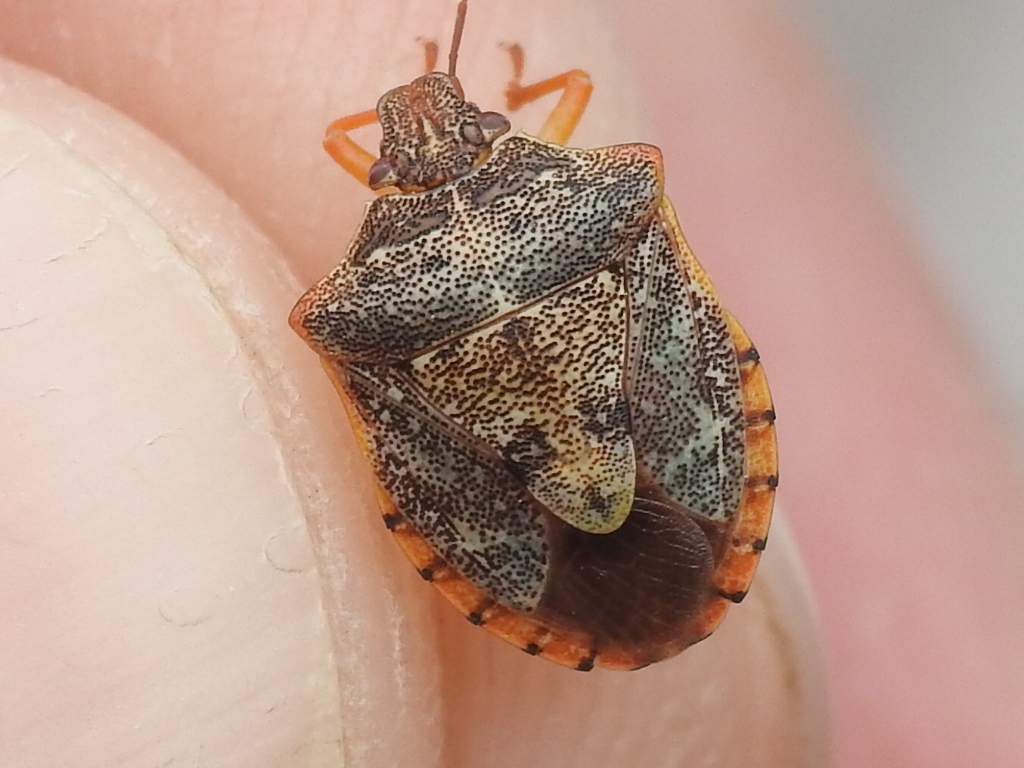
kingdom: Animalia
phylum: Arthropoda
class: Insecta
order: Hemiptera
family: Pentatomidae
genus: Dendrocoris
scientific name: Dendrocoris humeralis
